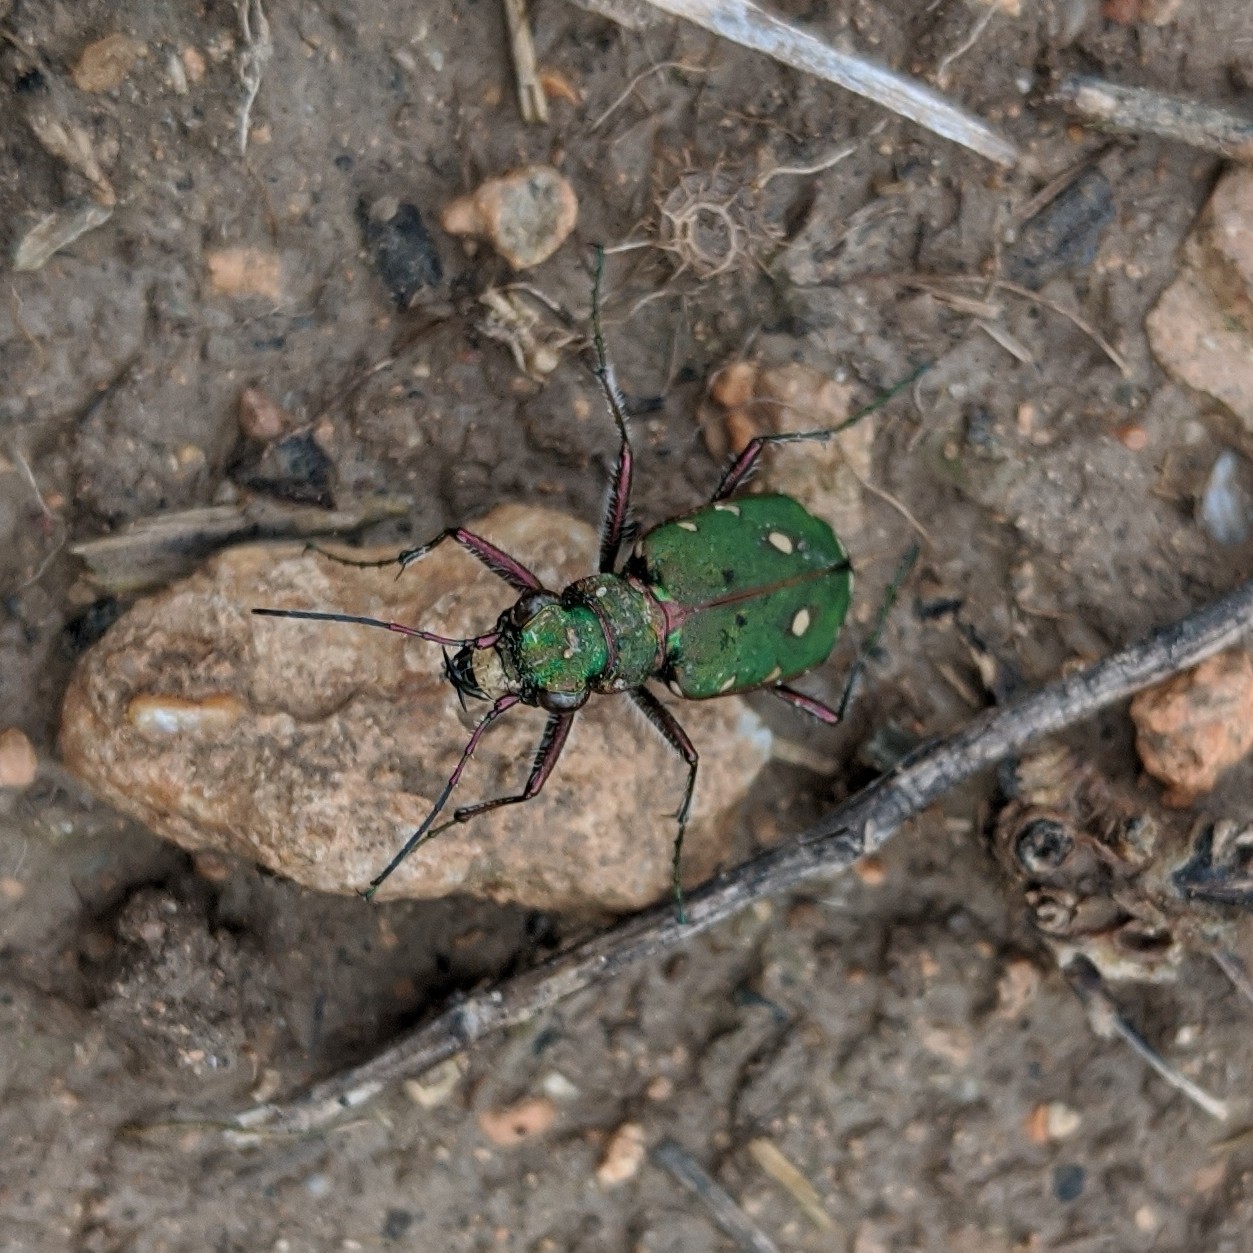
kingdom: Animalia
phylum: Arthropoda
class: Insecta
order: Coleoptera
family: Carabidae
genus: Cicindela
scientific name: Cicindela campestris
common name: Common tiger beetle
